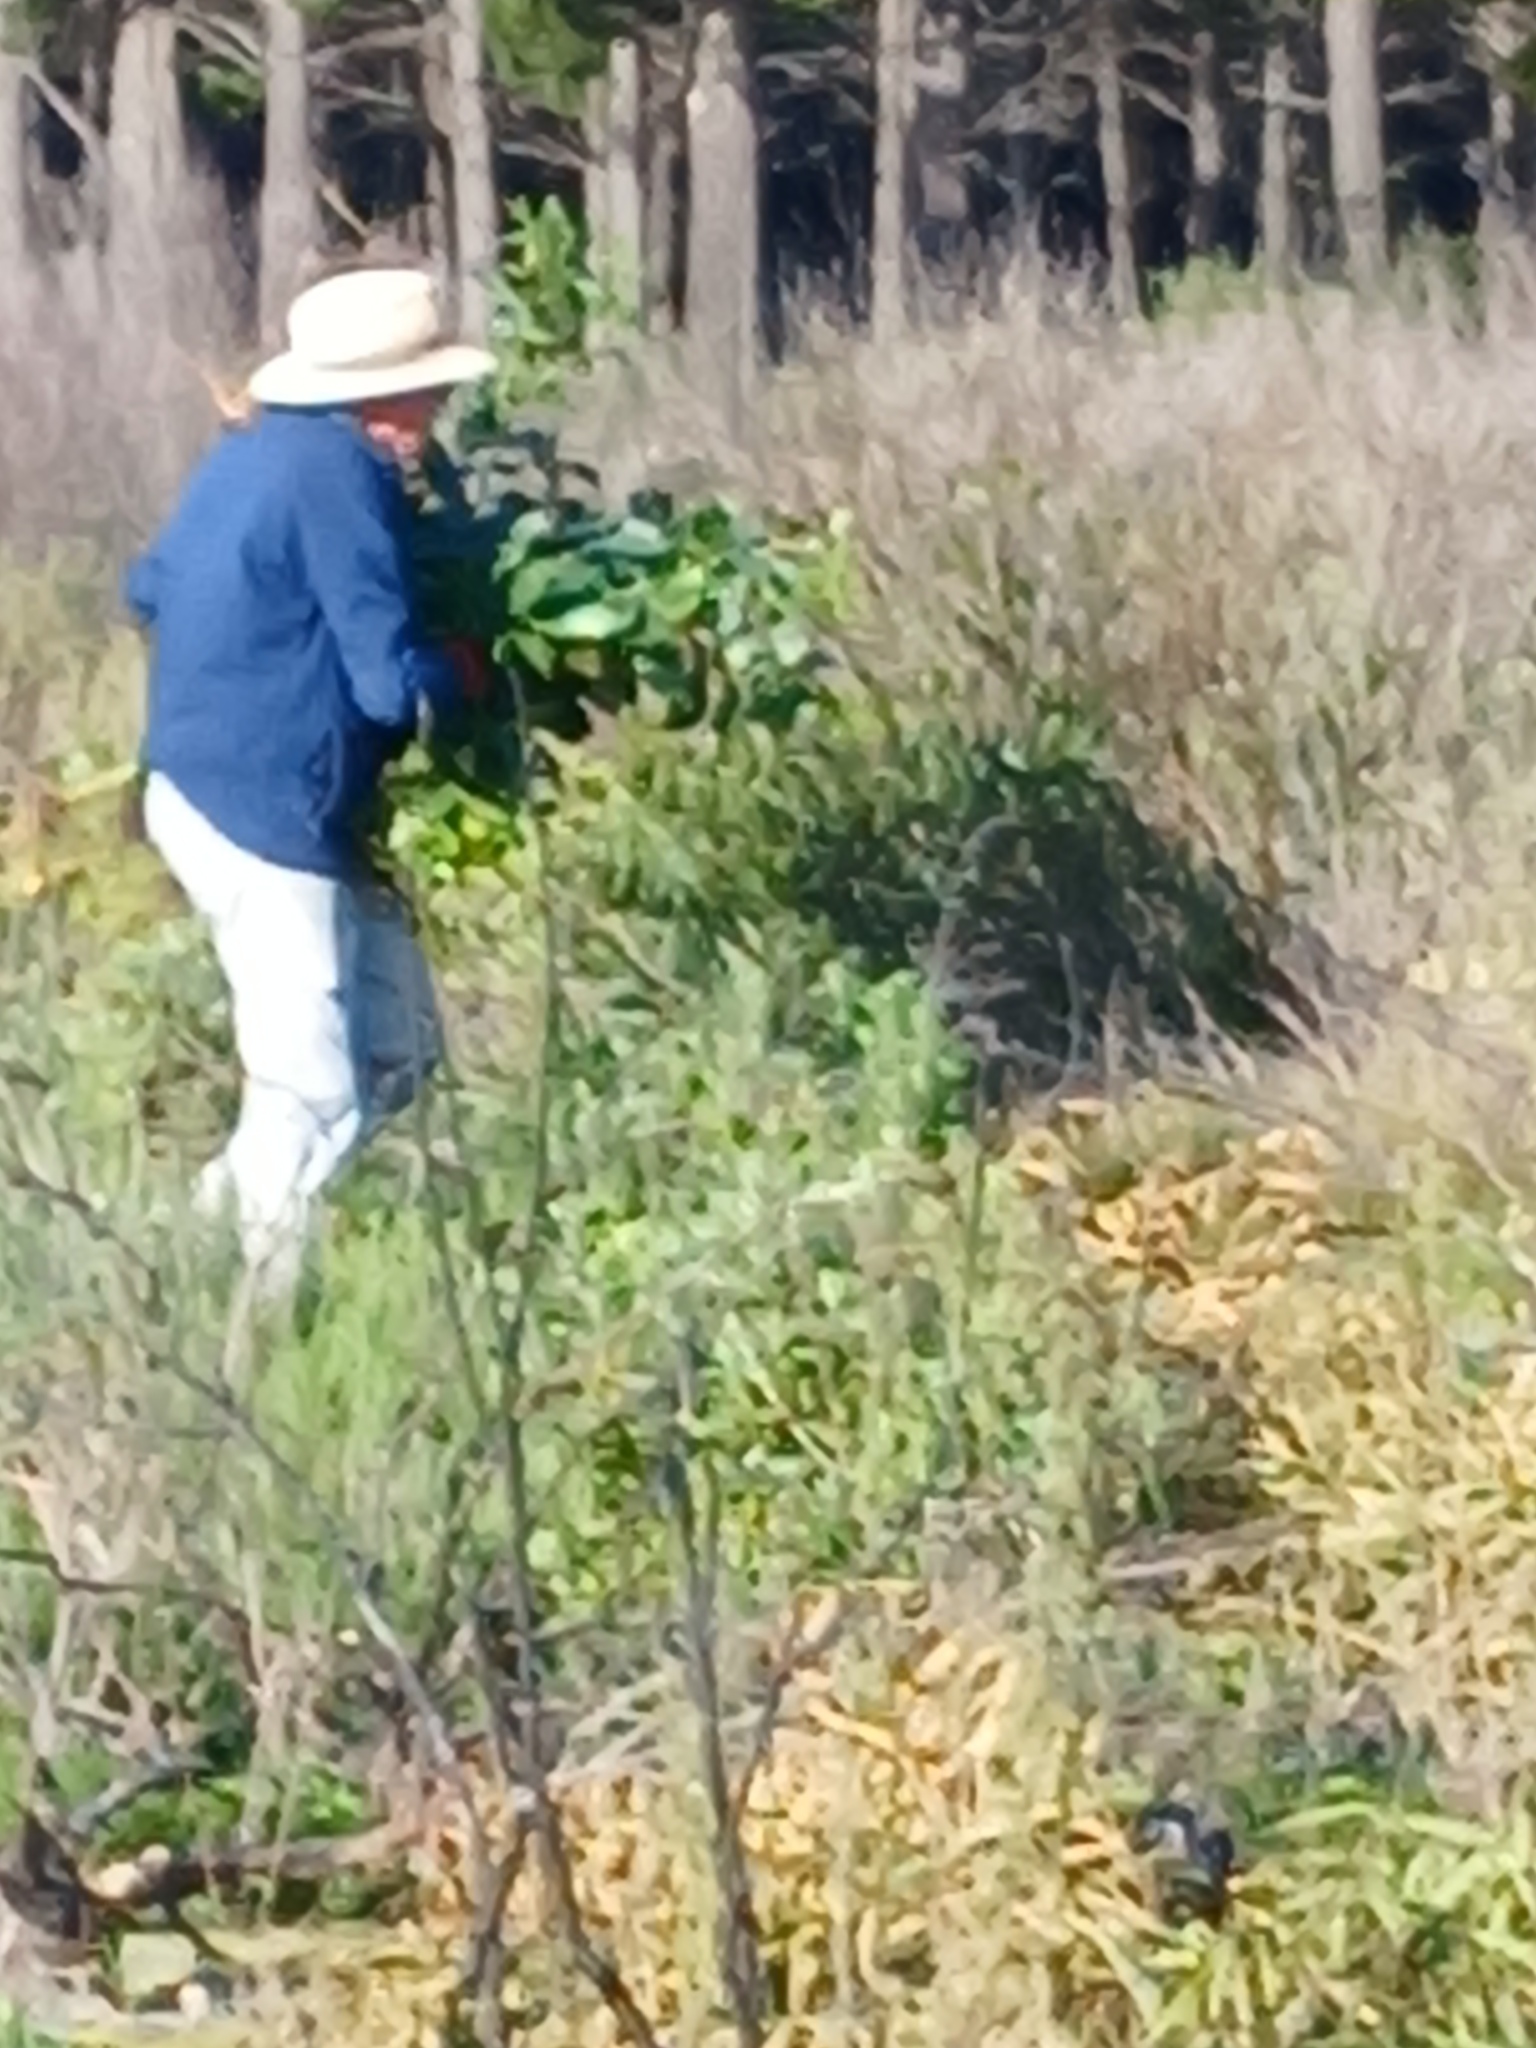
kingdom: Plantae
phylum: Tracheophyta
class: Magnoliopsida
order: Fabales
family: Fabaceae
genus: Acacia
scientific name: Acacia pycnantha
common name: Golden wattle
